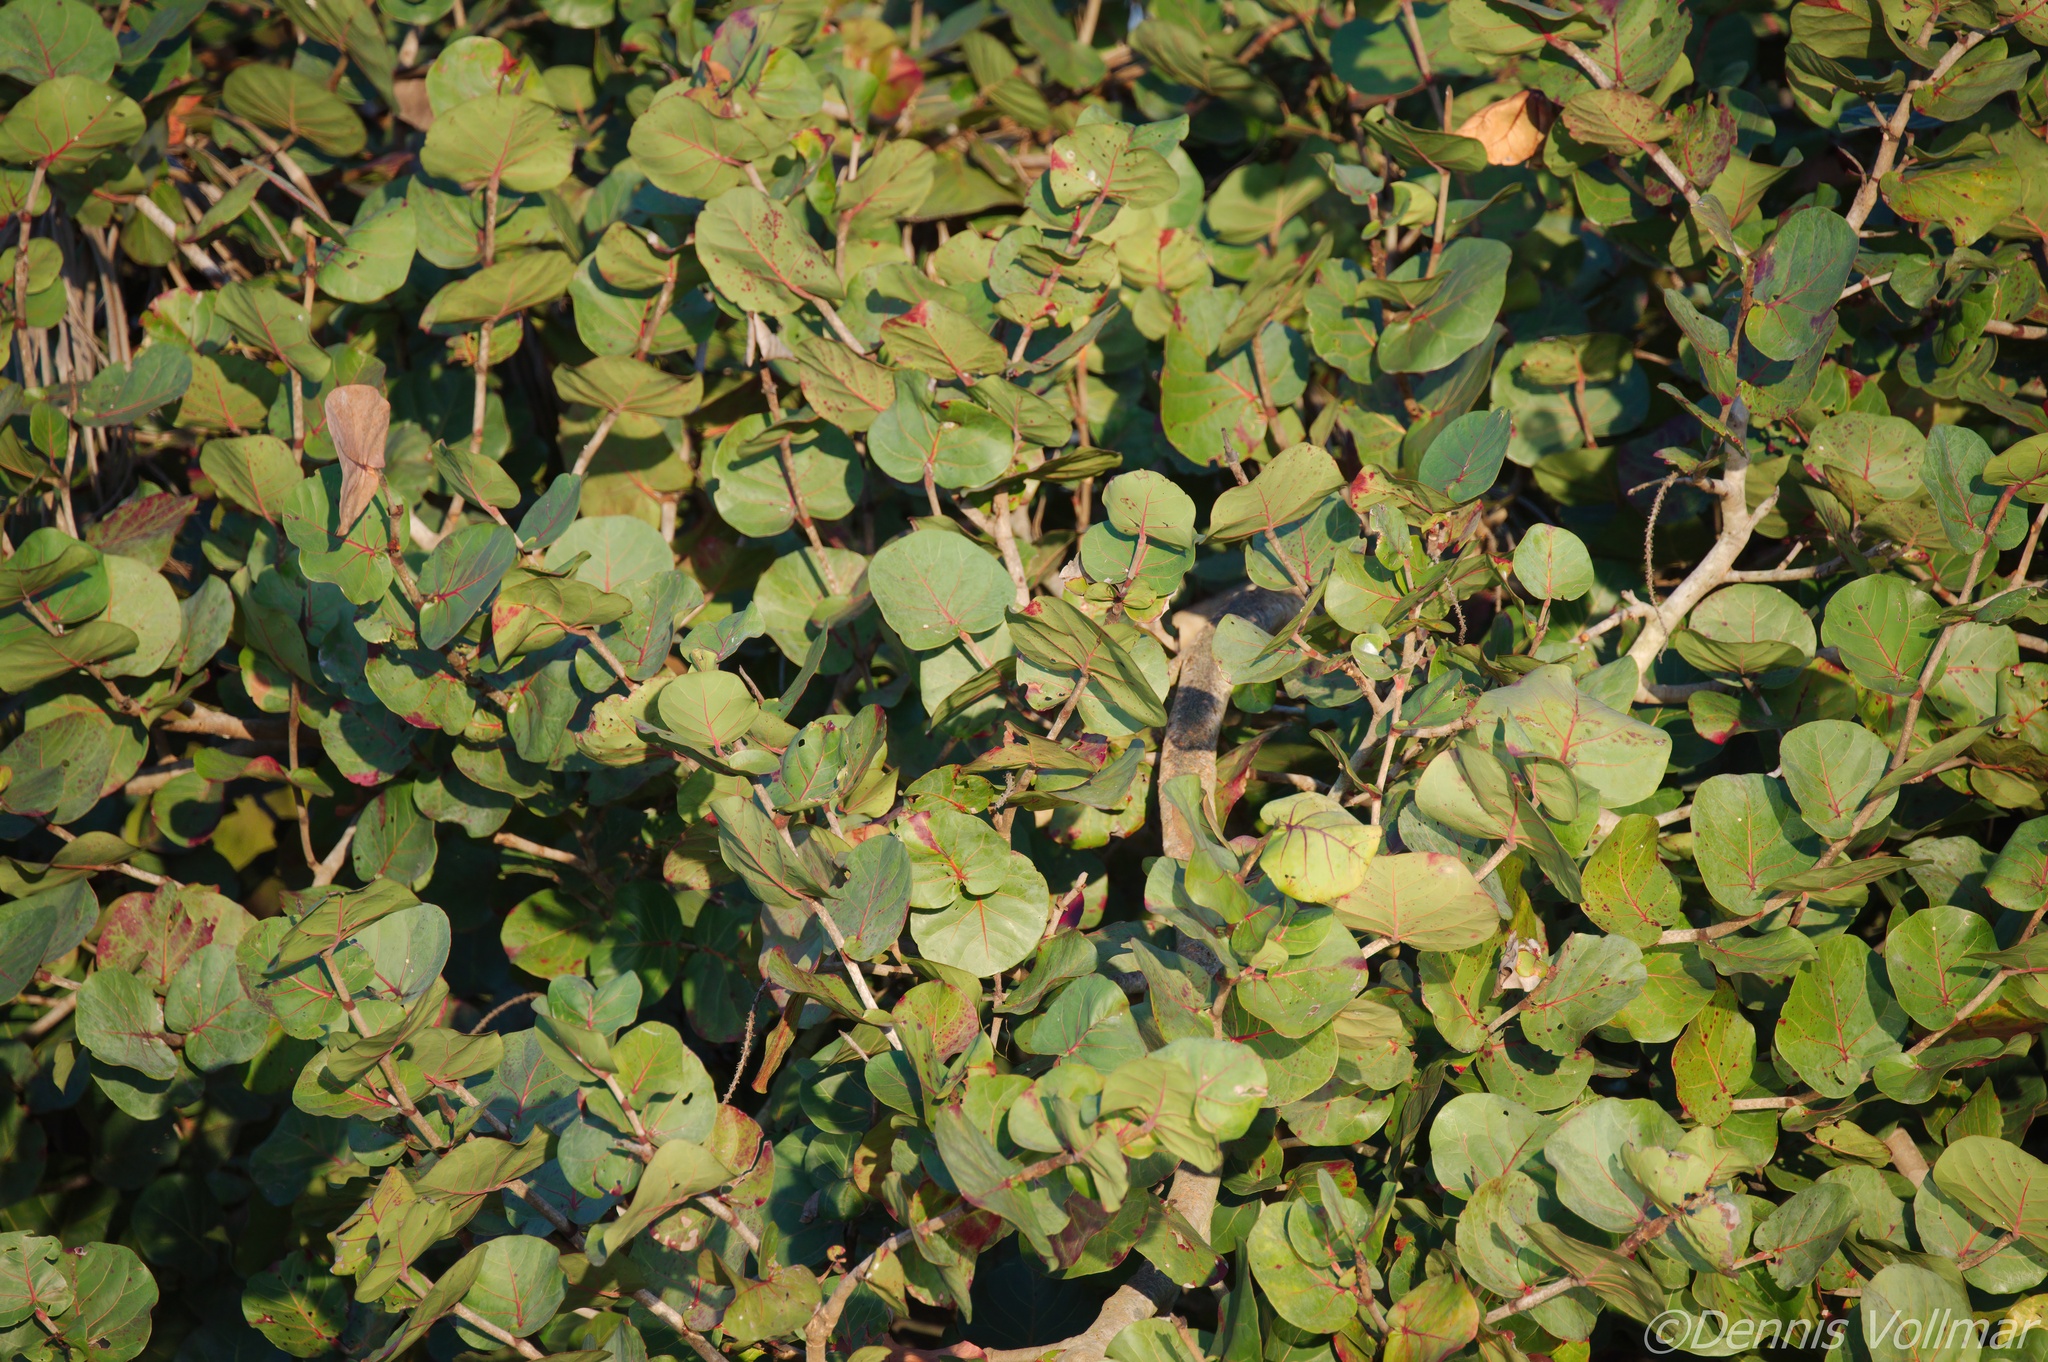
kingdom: Plantae
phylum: Tracheophyta
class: Magnoliopsida
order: Caryophyllales
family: Polygonaceae
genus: Coccoloba
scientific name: Coccoloba uvifera
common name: Seagrape
